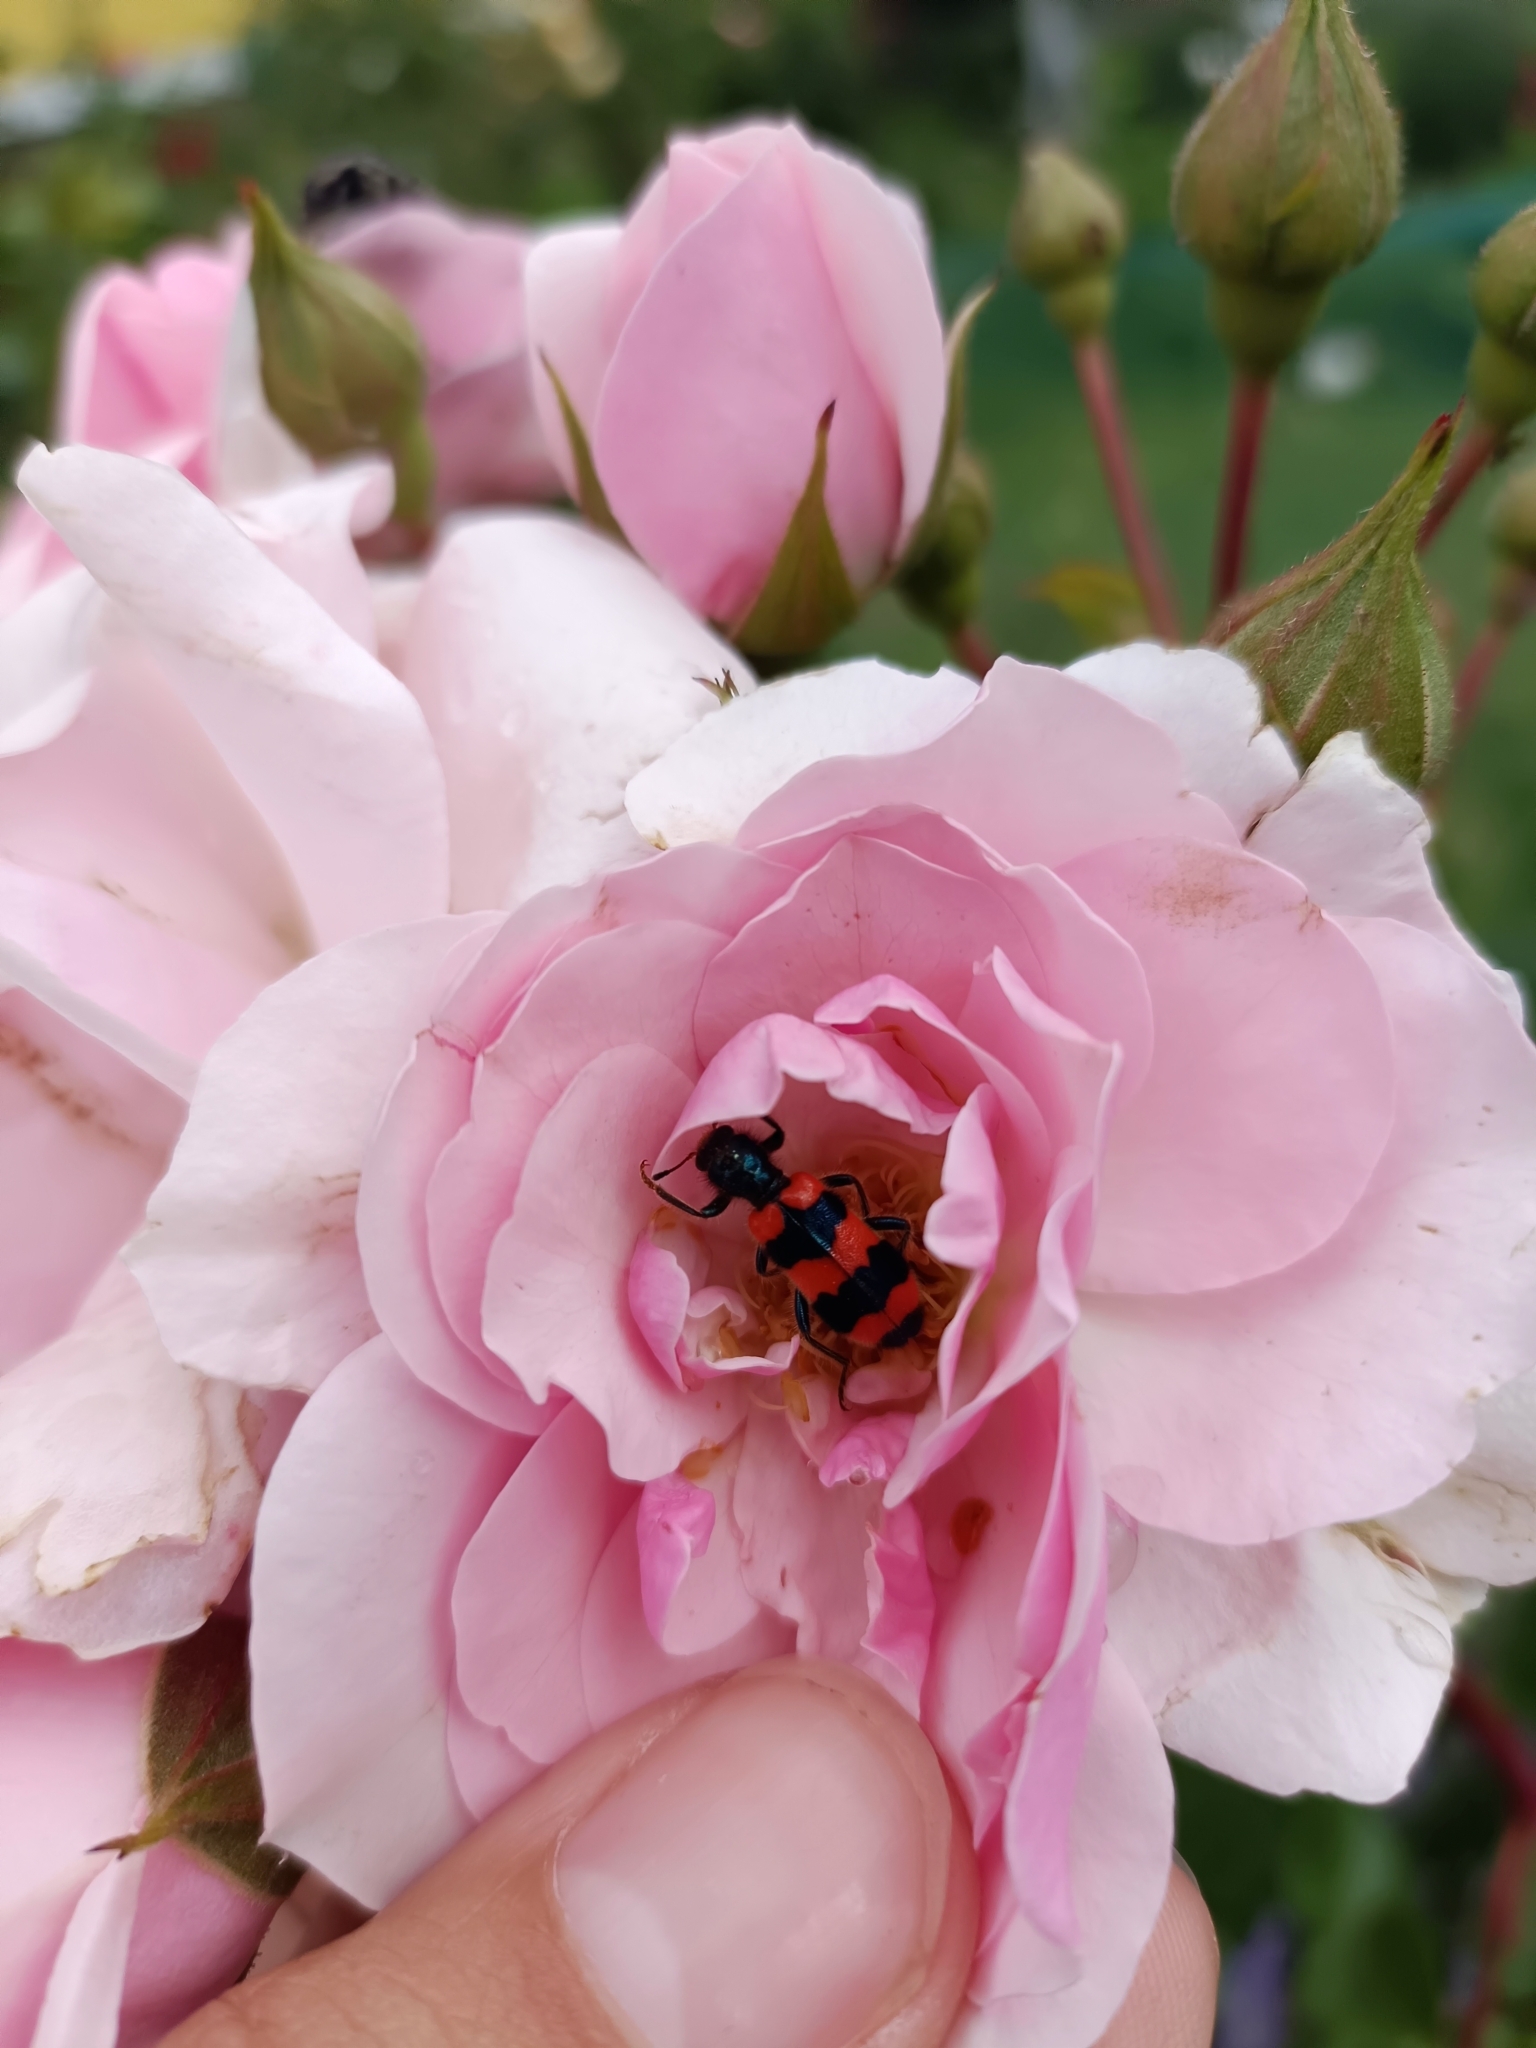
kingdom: Animalia
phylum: Arthropoda
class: Insecta
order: Coleoptera
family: Cleridae
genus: Trichodes
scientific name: Trichodes apiarius
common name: Bee-eating beetle
